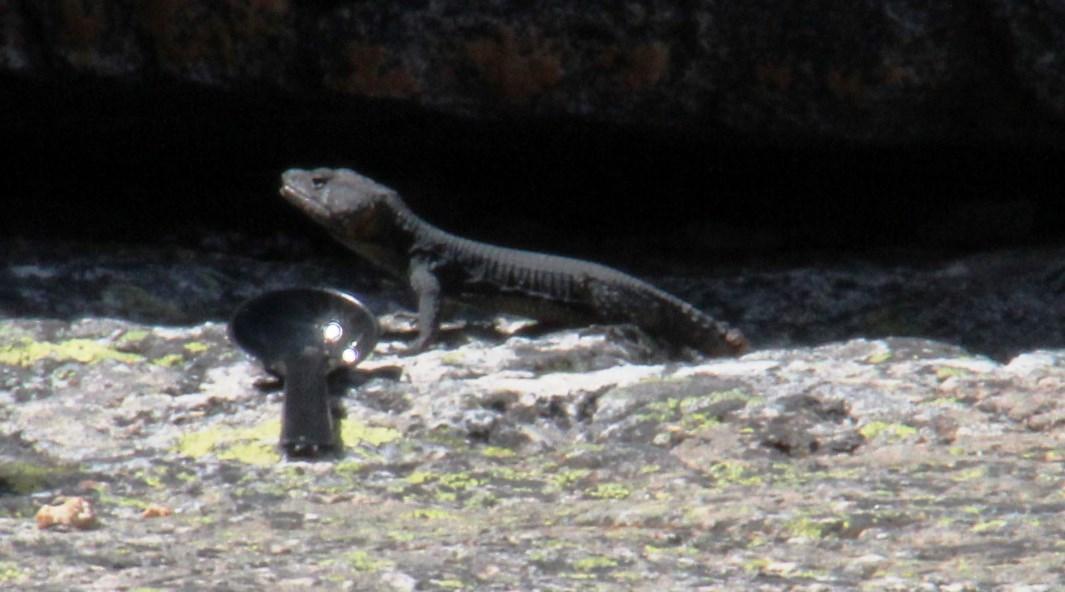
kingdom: Animalia
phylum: Chordata
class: Squamata
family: Cordylidae
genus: Hemicordylus
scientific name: Hemicordylus capensis
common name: Graceful crag lizard
